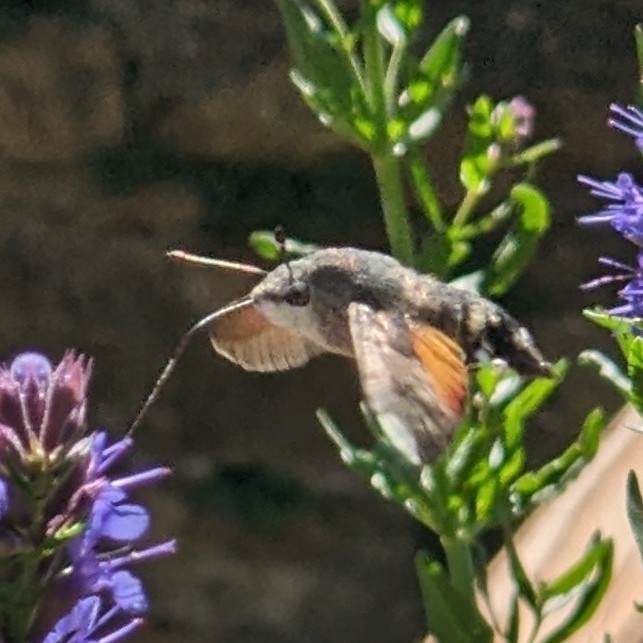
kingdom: Animalia
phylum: Arthropoda
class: Insecta
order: Lepidoptera
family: Sphingidae
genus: Macroglossum
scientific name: Macroglossum stellatarum
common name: Humming-bird hawk-moth
